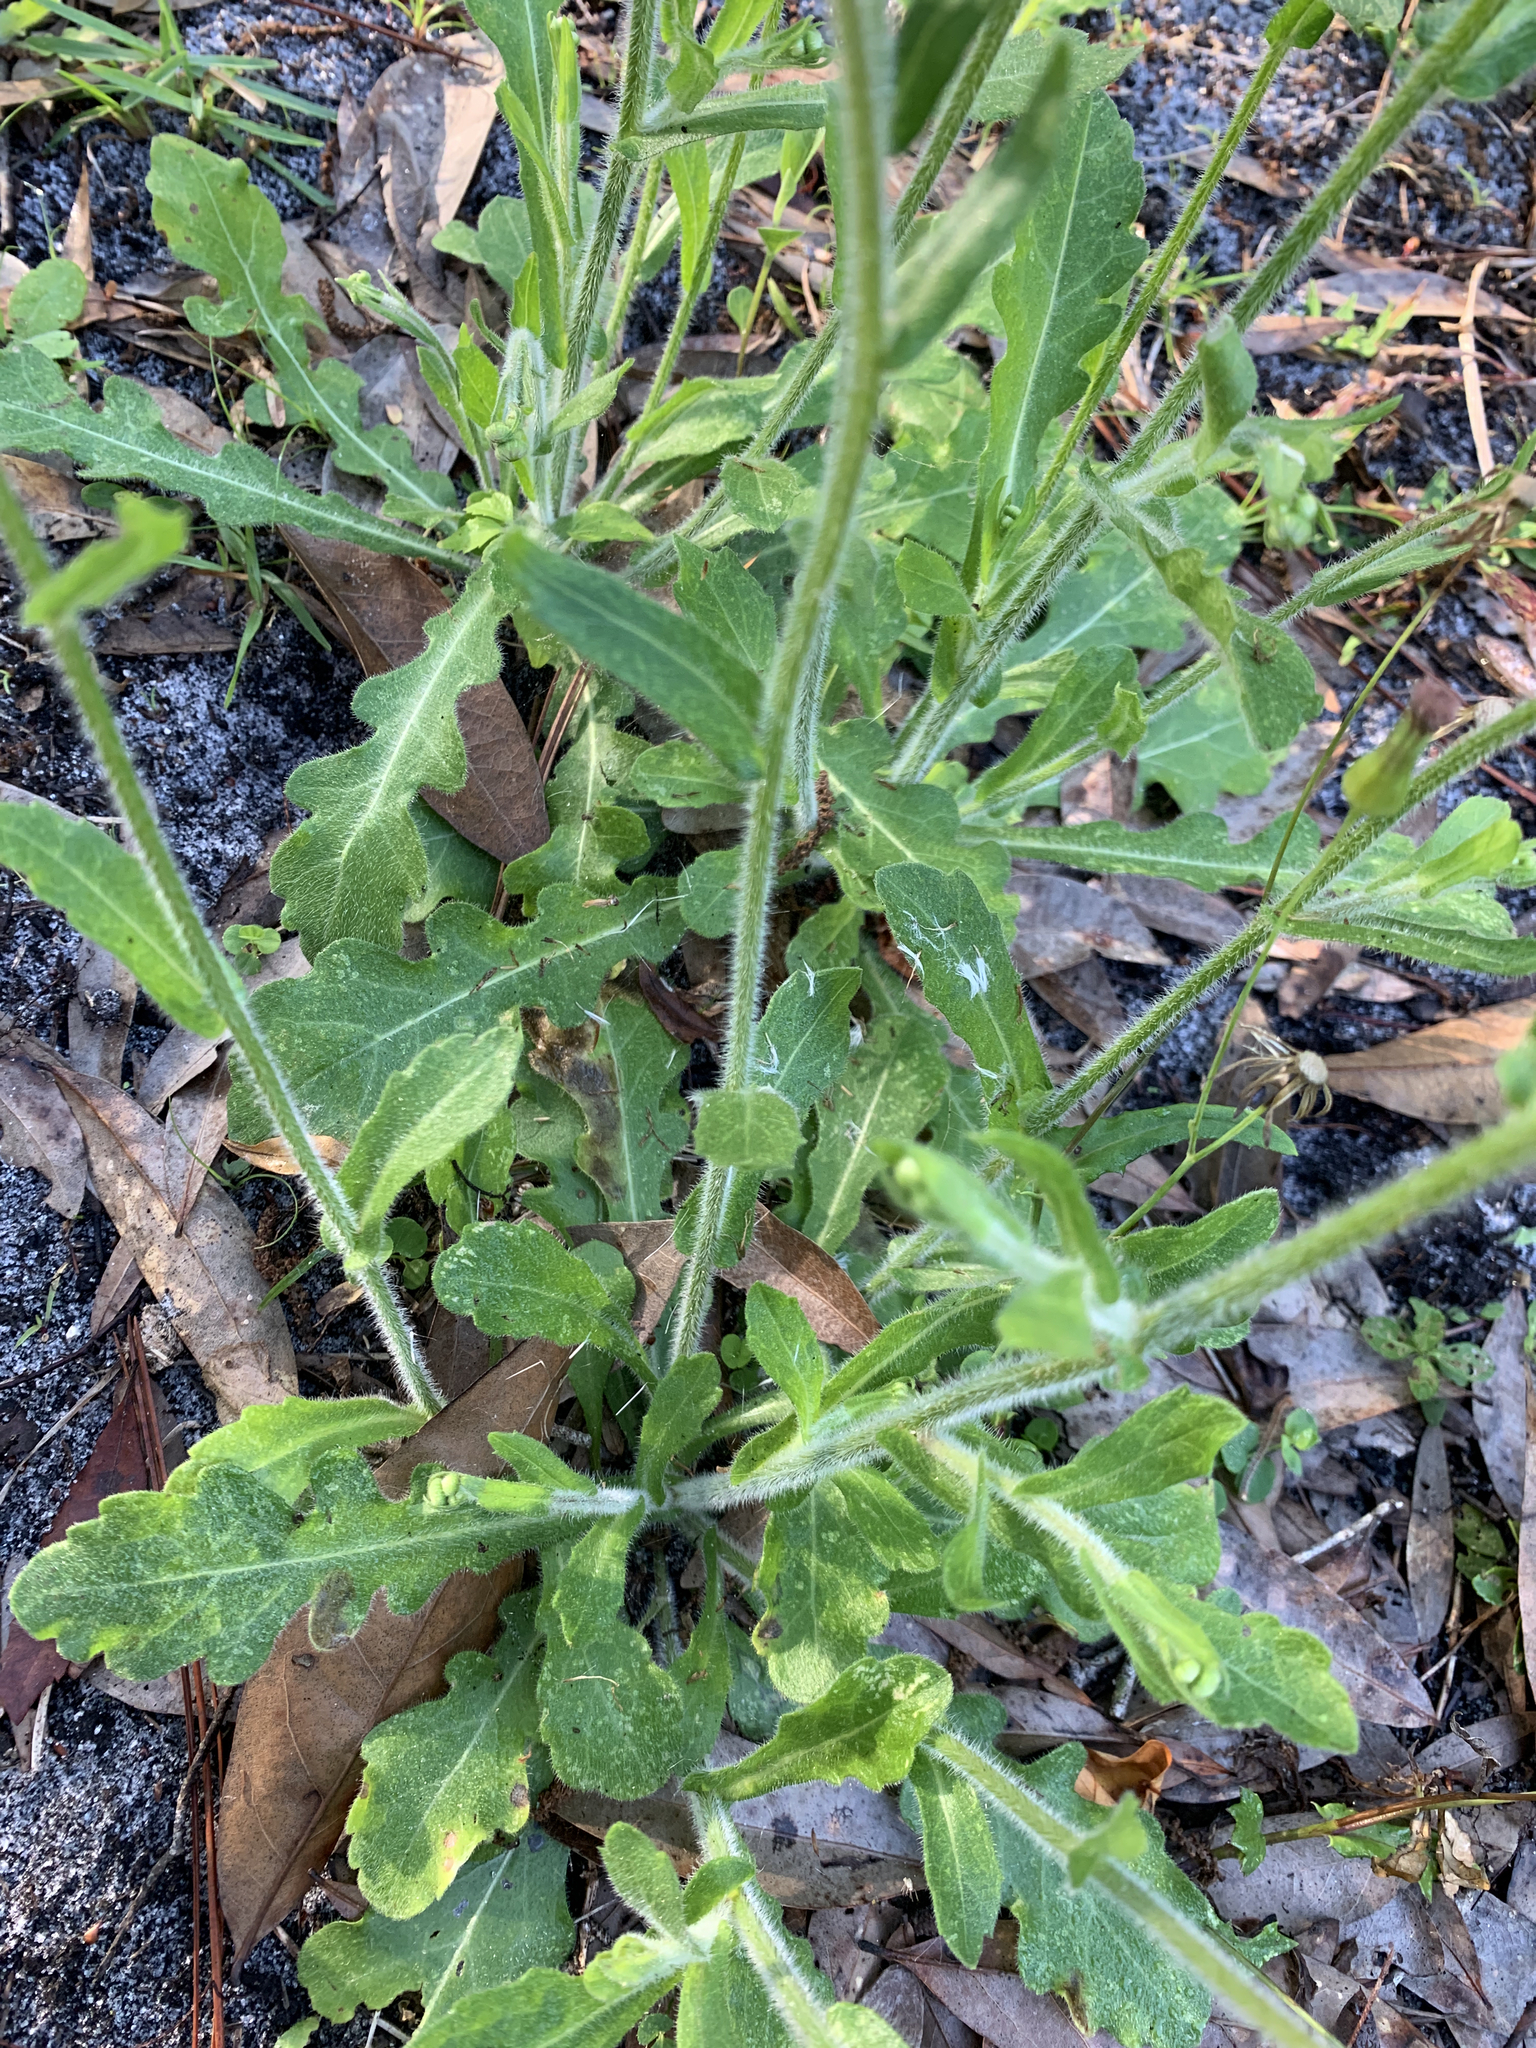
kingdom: Plantae
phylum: Tracheophyta
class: Magnoliopsida
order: Asterales
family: Asteraceae
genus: Erigeron
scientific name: Erigeron quercifolius
